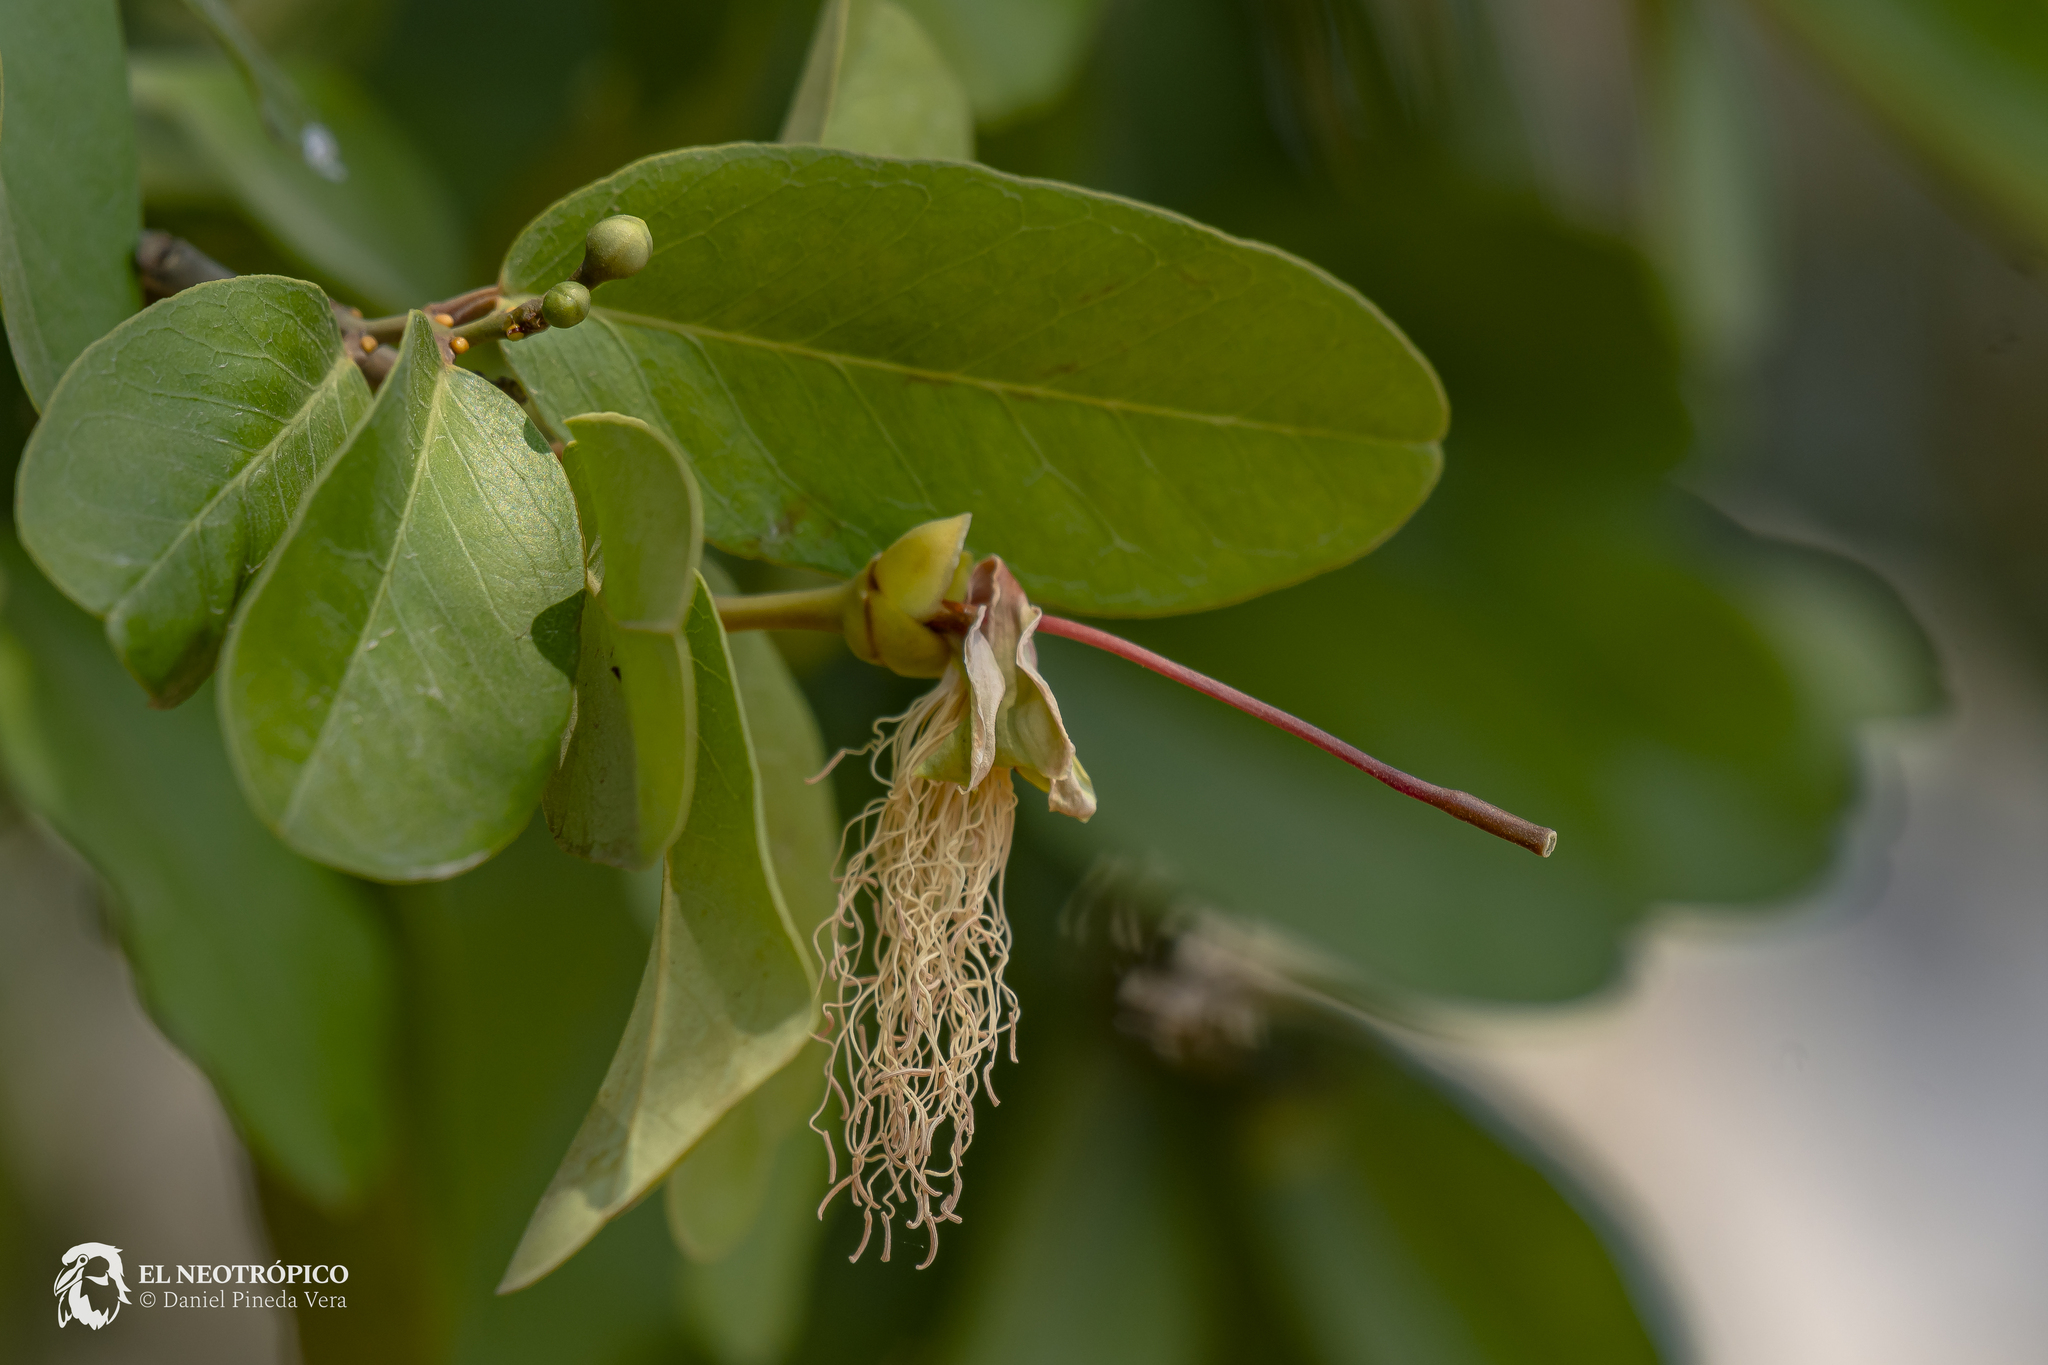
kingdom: Plantae
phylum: Tracheophyta
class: Magnoliopsida
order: Brassicales
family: Capparaceae
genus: Cynophalla
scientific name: Cynophalla flexuosa
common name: Capertree
